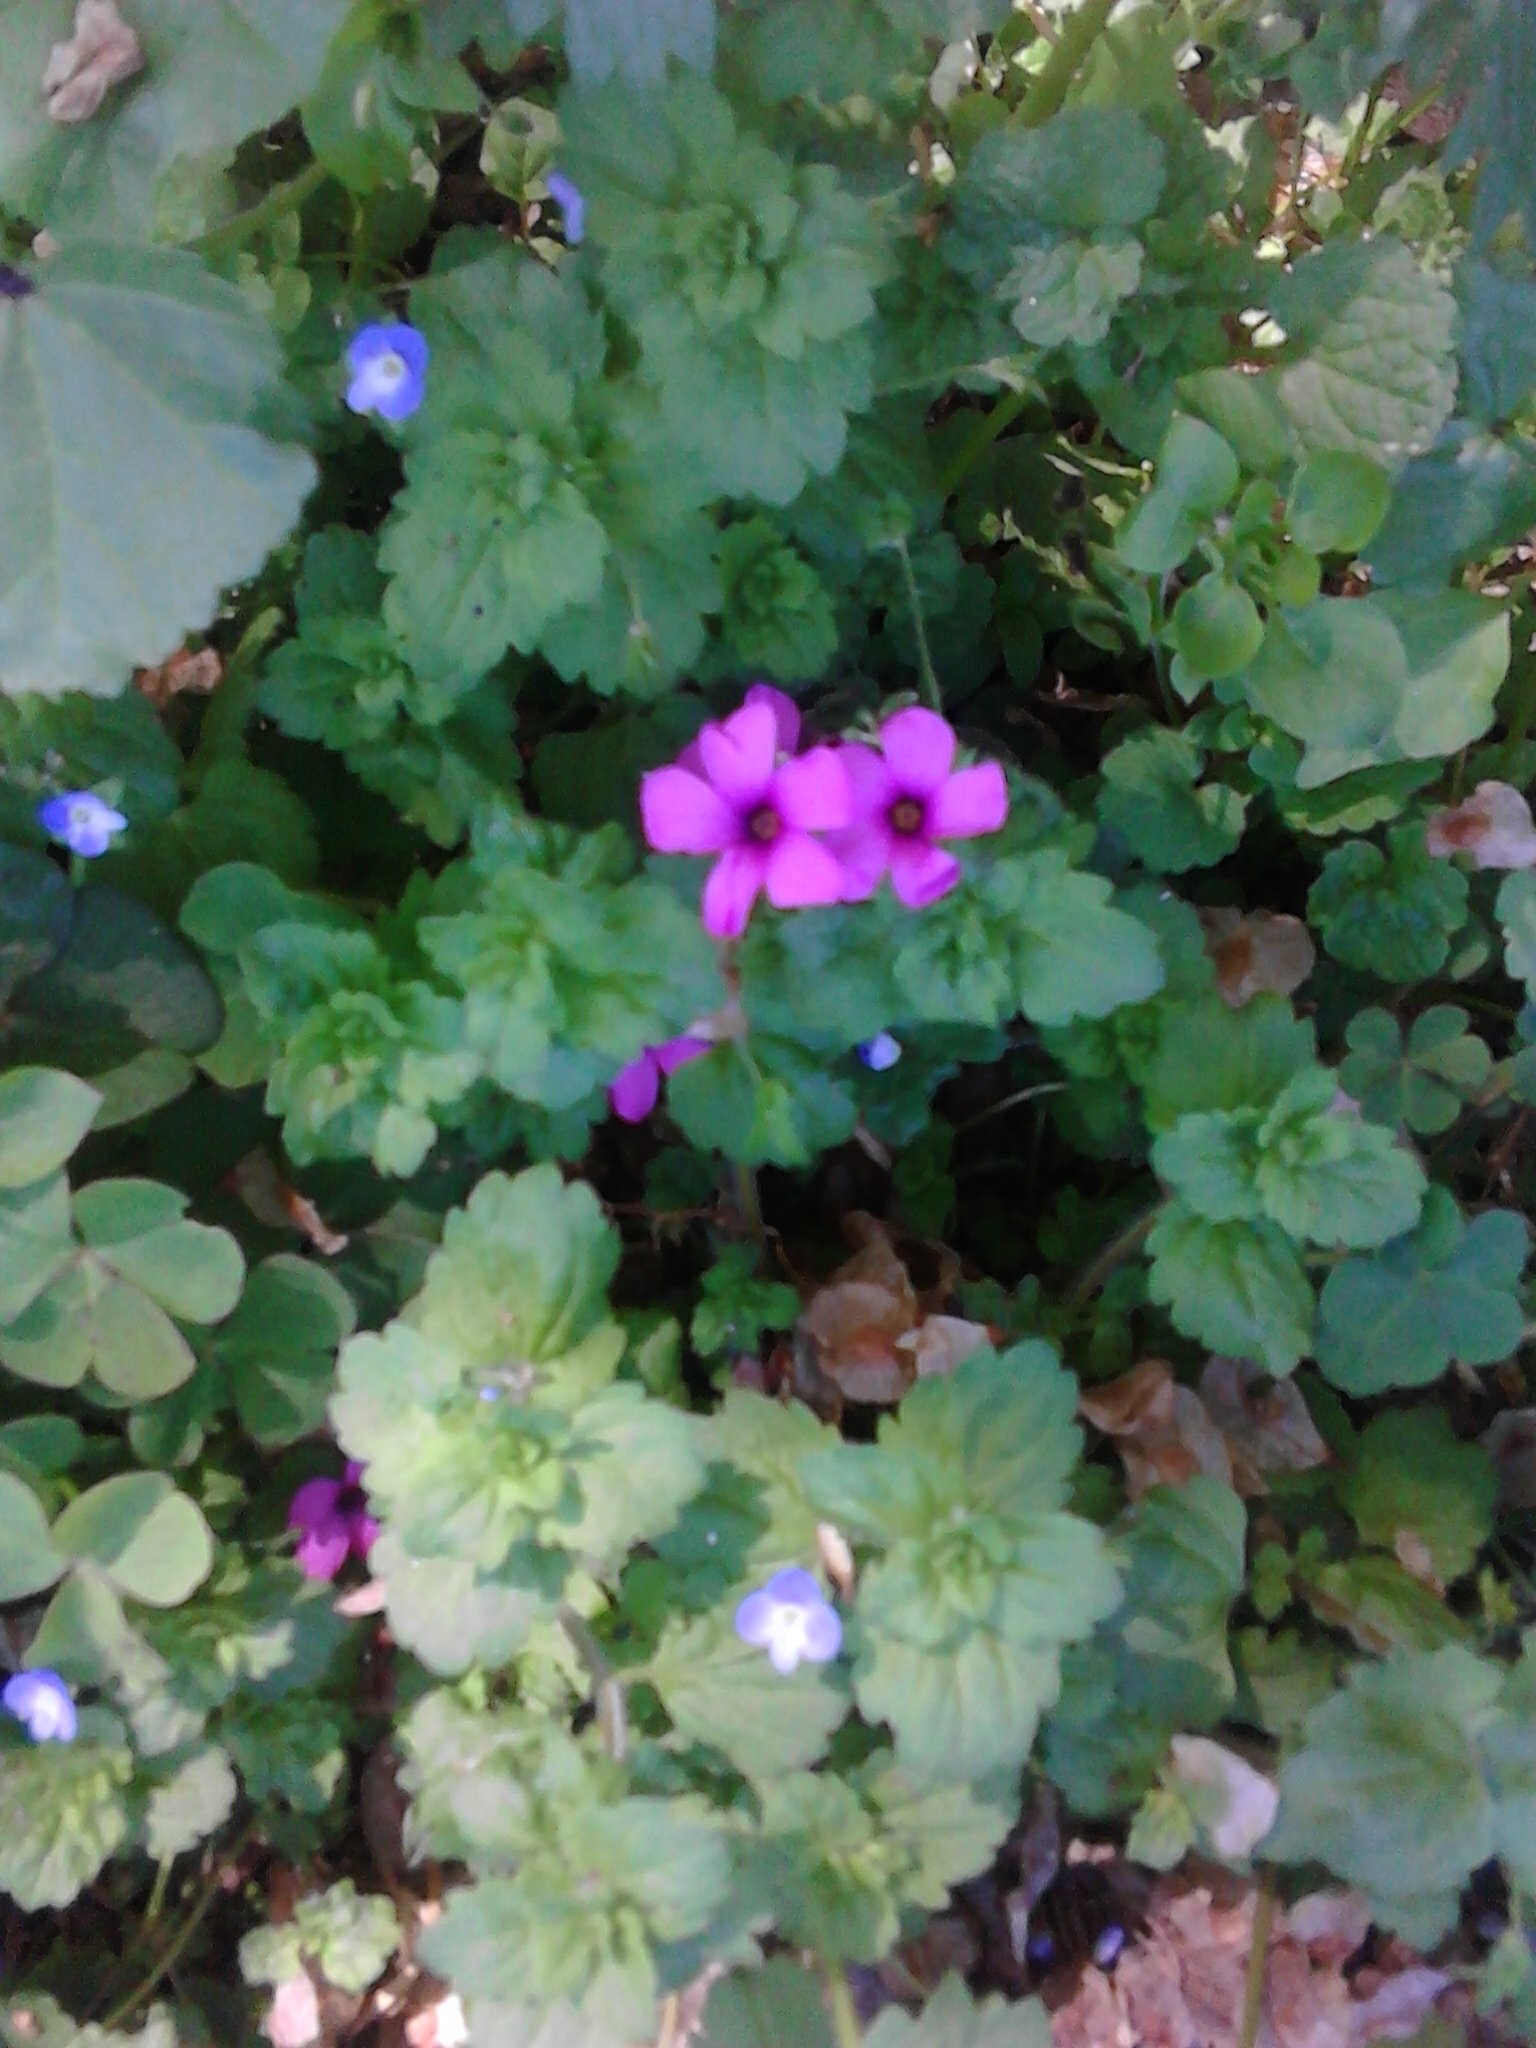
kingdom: Plantae
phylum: Tracheophyta
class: Magnoliopsida
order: Oxalidales
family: Oxalidaceae
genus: Oxalis
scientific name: Oxalis articulata
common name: Pink-sorrel
